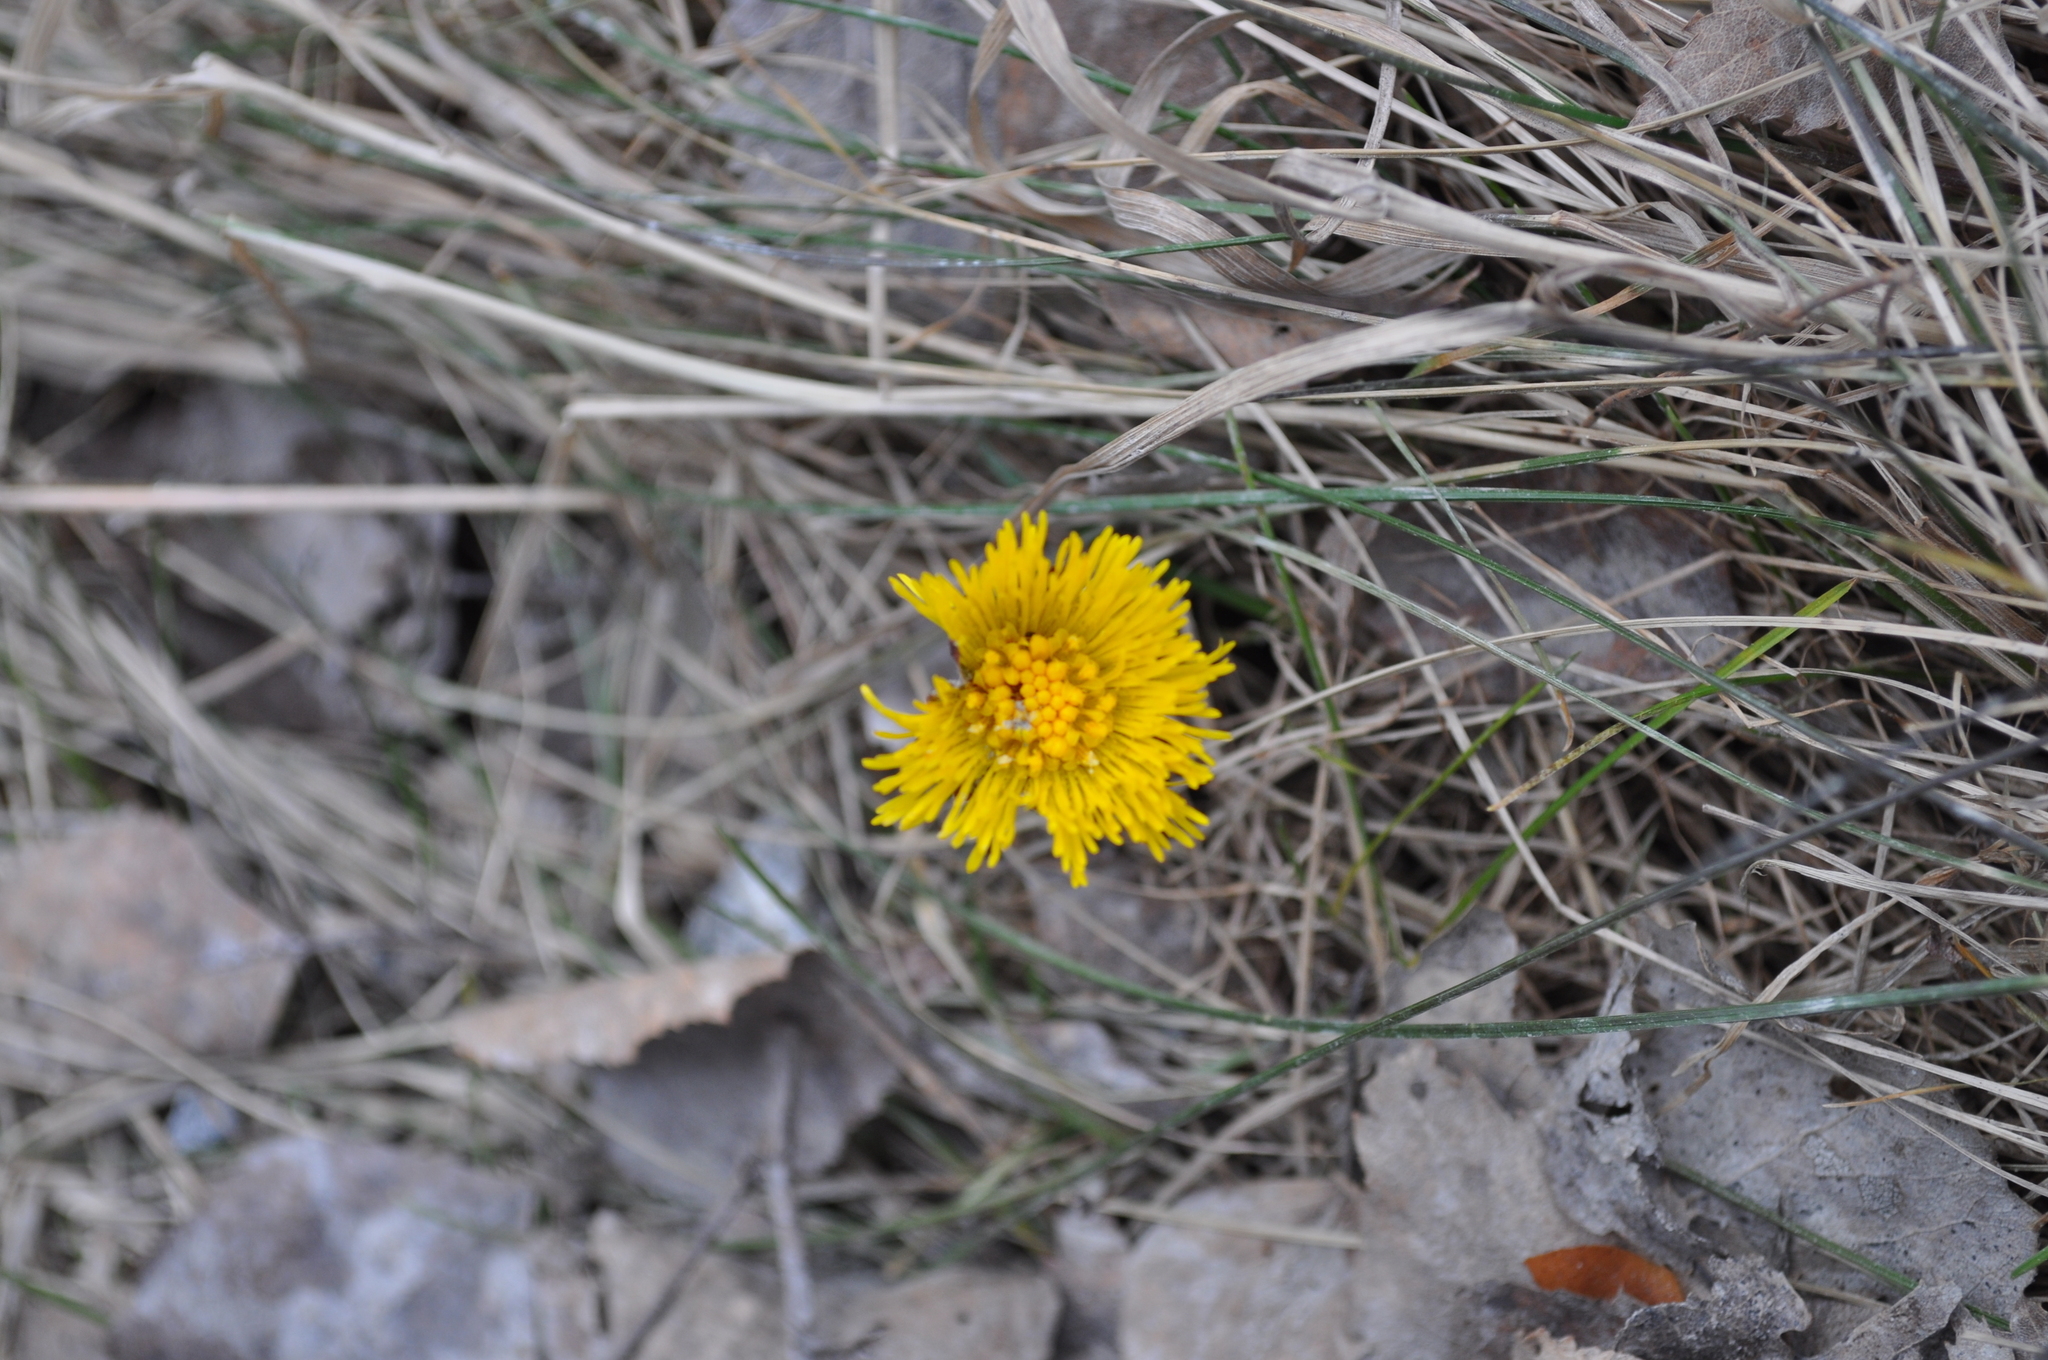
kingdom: Plantae
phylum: Tracheophyta
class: Magnoliopsida
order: Asterales
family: Asteraceae
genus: Tussilago
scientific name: Tussilago farfara
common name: Coltsfoot
